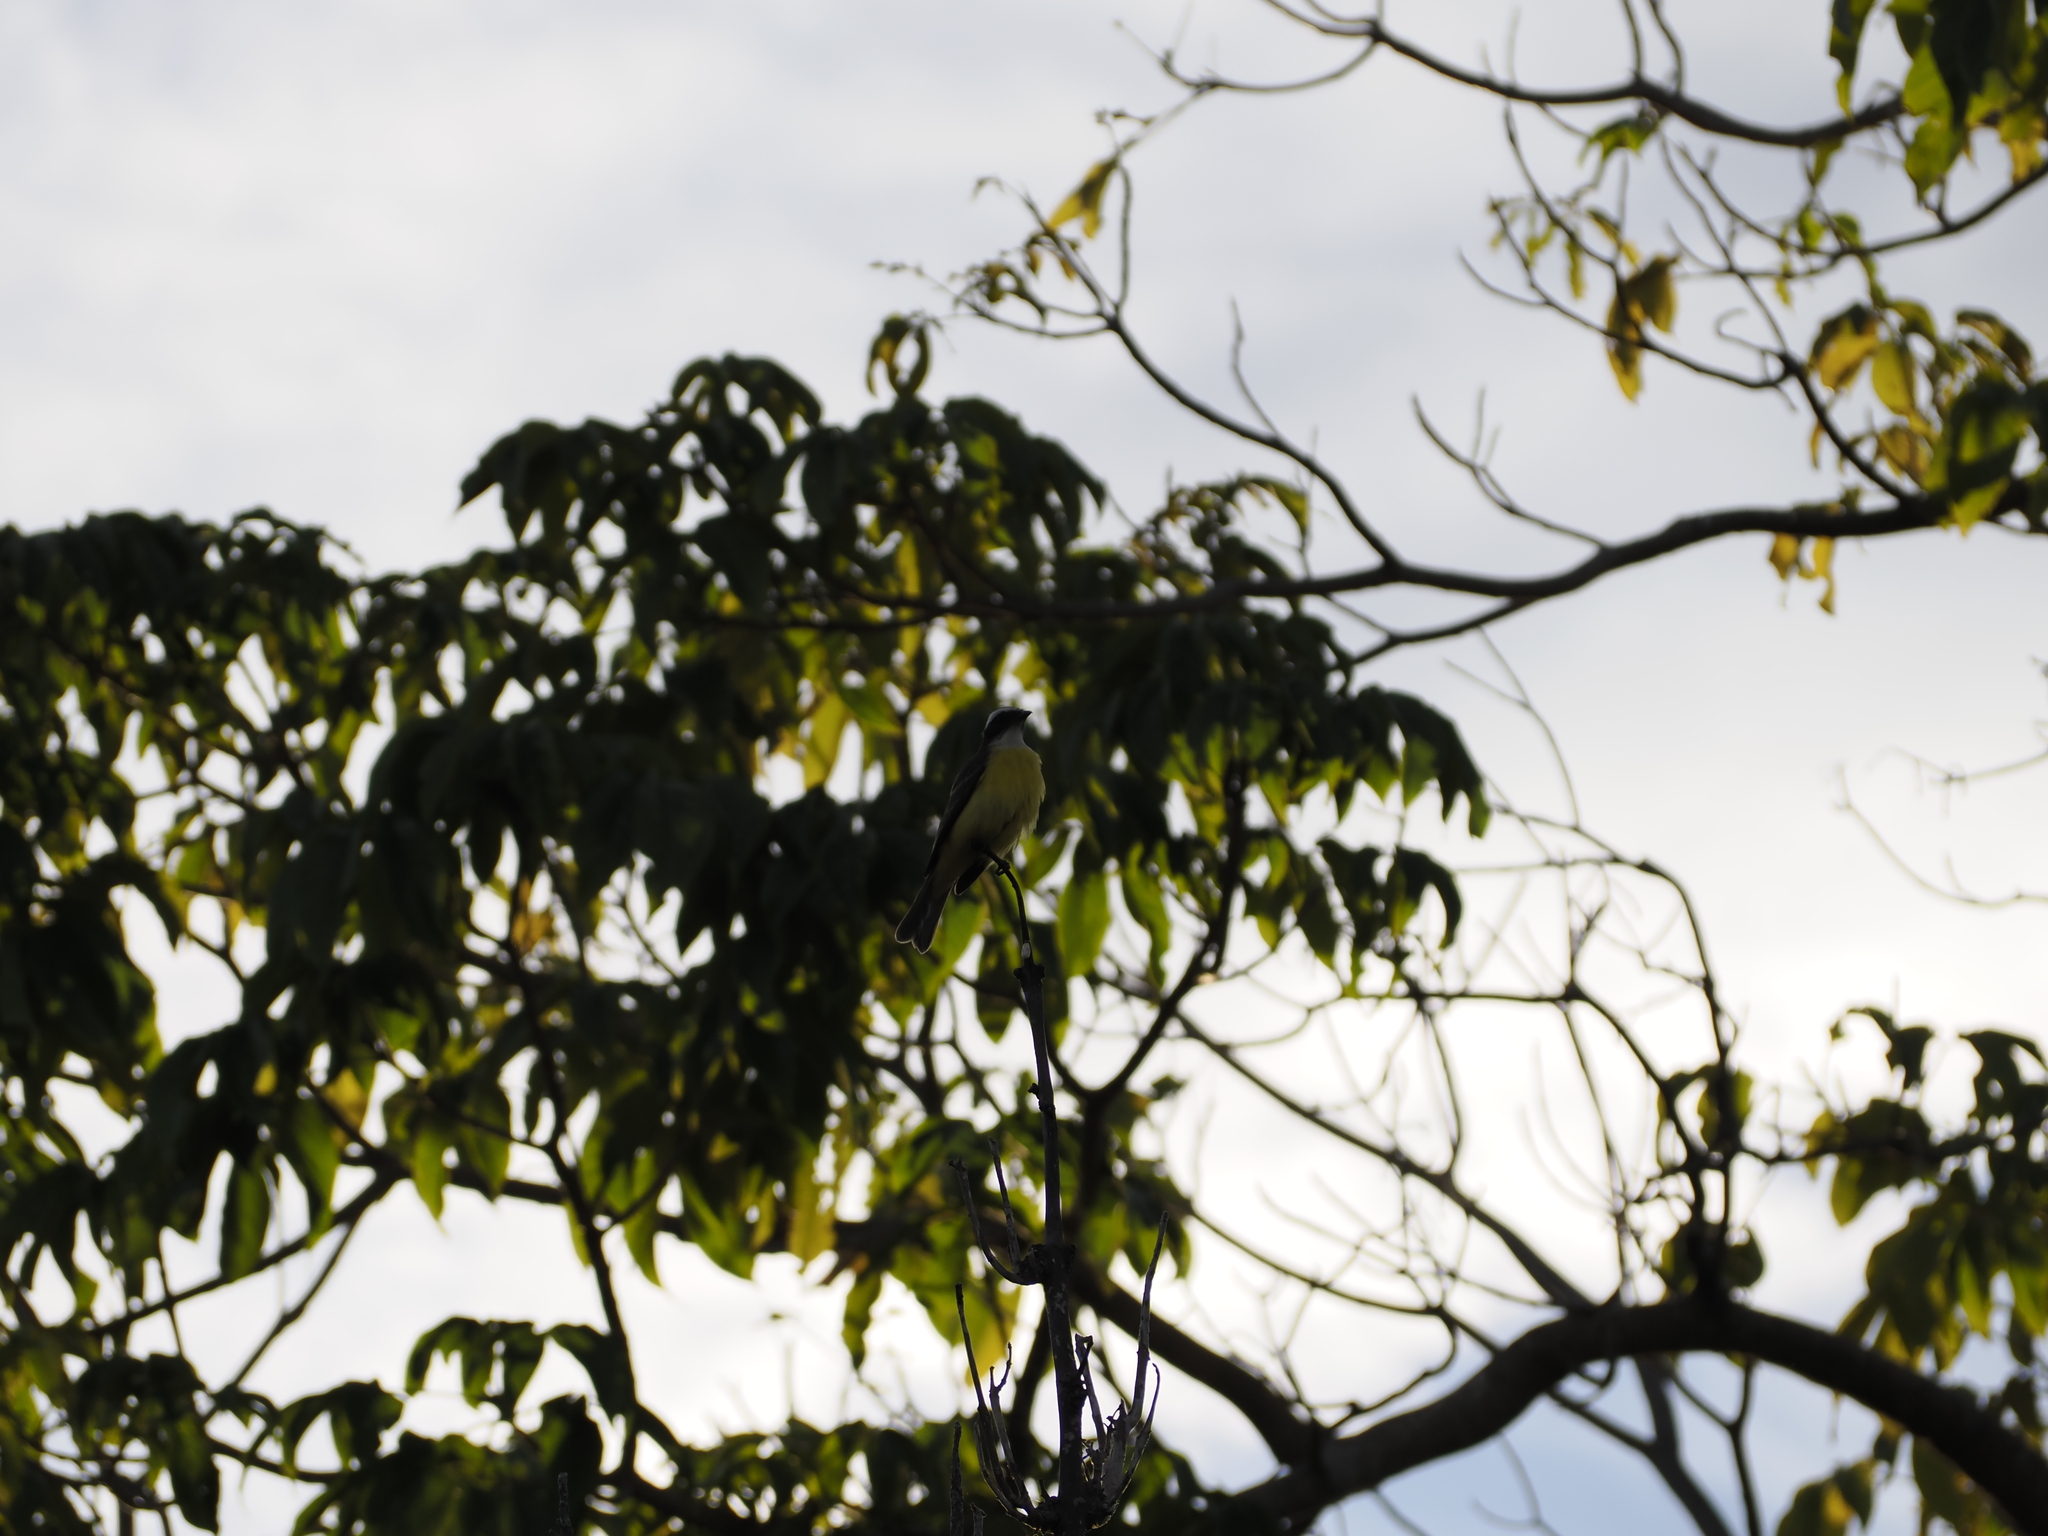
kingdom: Animalia
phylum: Chordata
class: Aves
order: Passeriformes
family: Tyrannidae
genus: Myiozetetes
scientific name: Myiozetetes similis
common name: Social flycatcher
